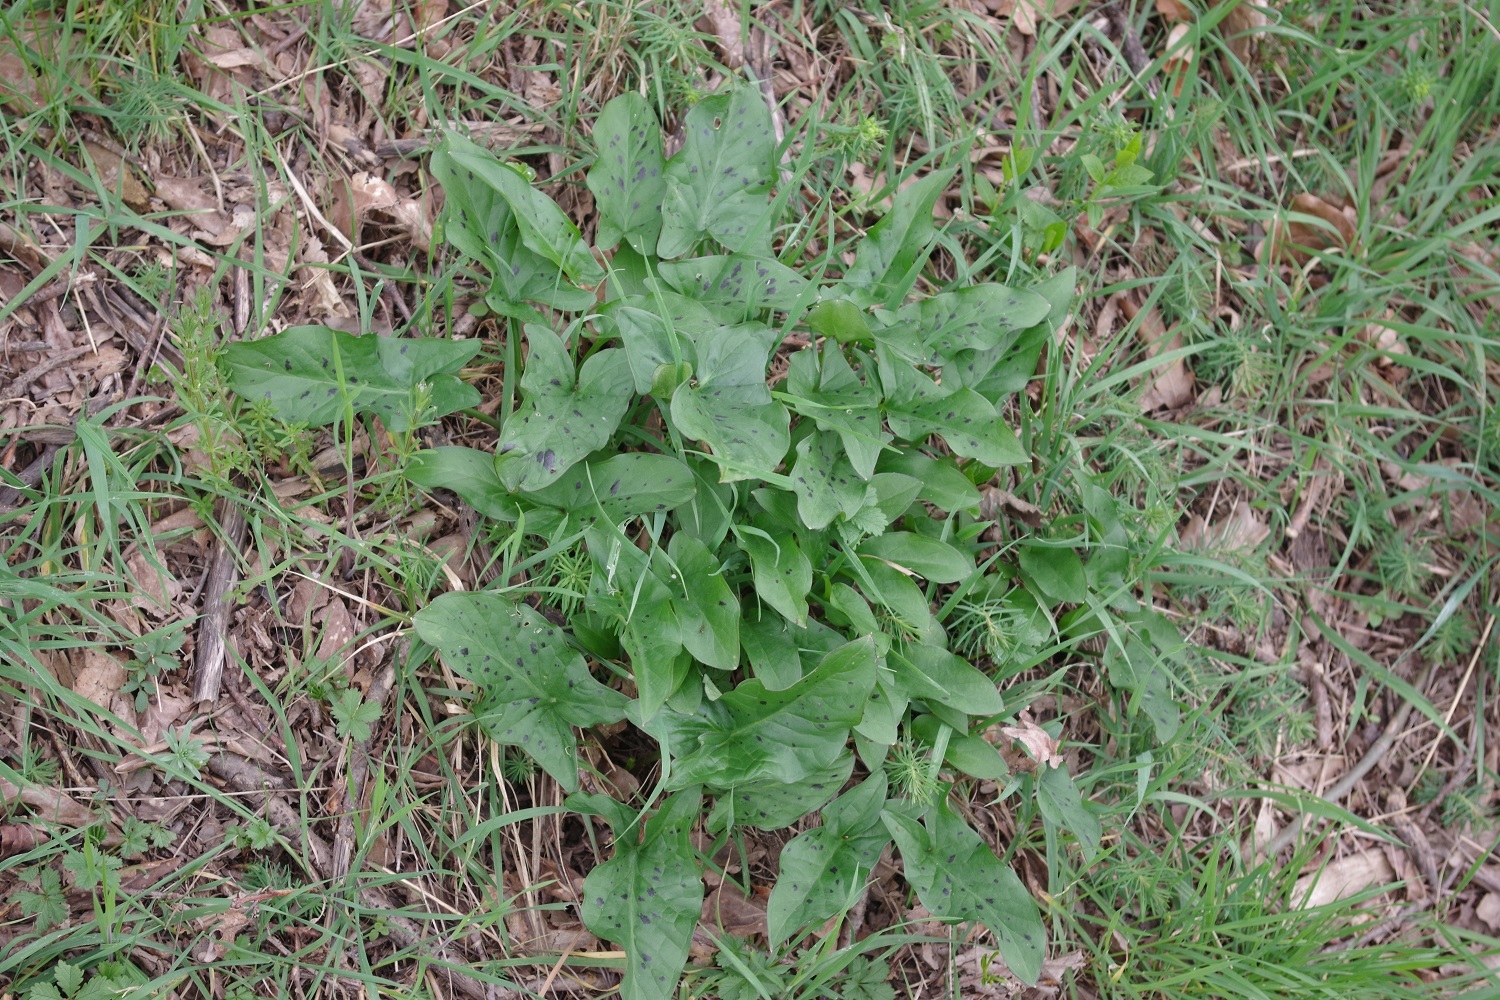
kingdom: Plantae
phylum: Tracheophyta
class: Liliopsida
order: Alismatales
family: Araceae
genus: Arum
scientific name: Arum maculatum
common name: Lords-and-ladies
